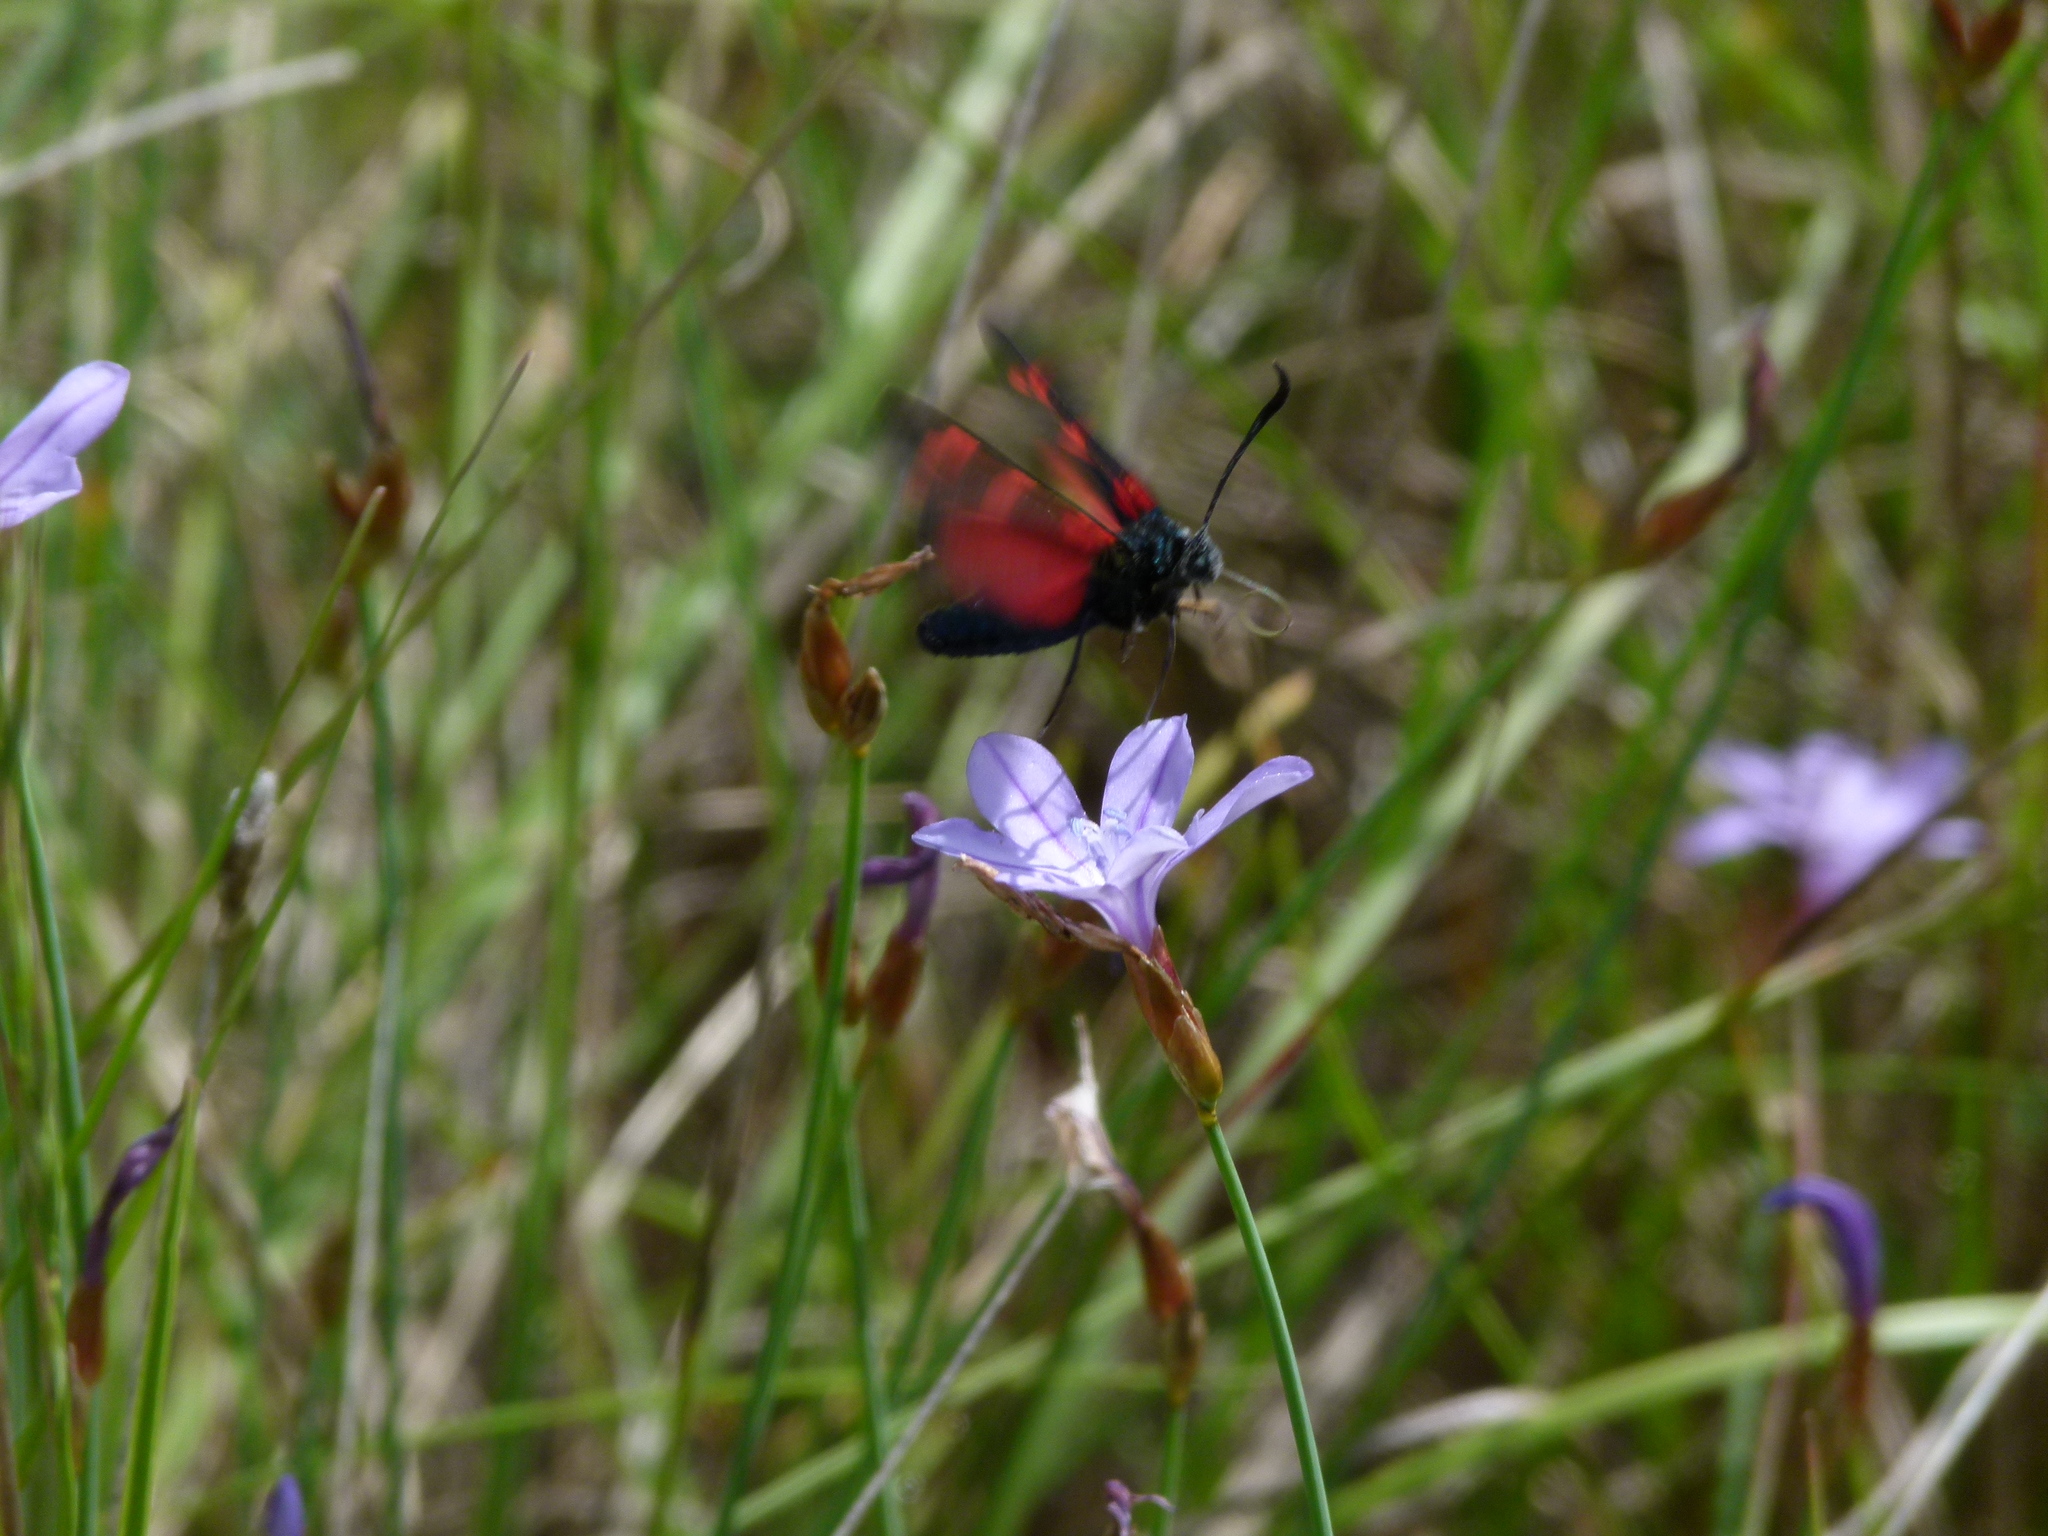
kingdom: Animalia
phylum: Arthropoda
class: Insecta
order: Lepidoptera
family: Zygaenidae
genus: Zygaena
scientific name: Zygaena filipendulae
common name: Six-spot burnet
